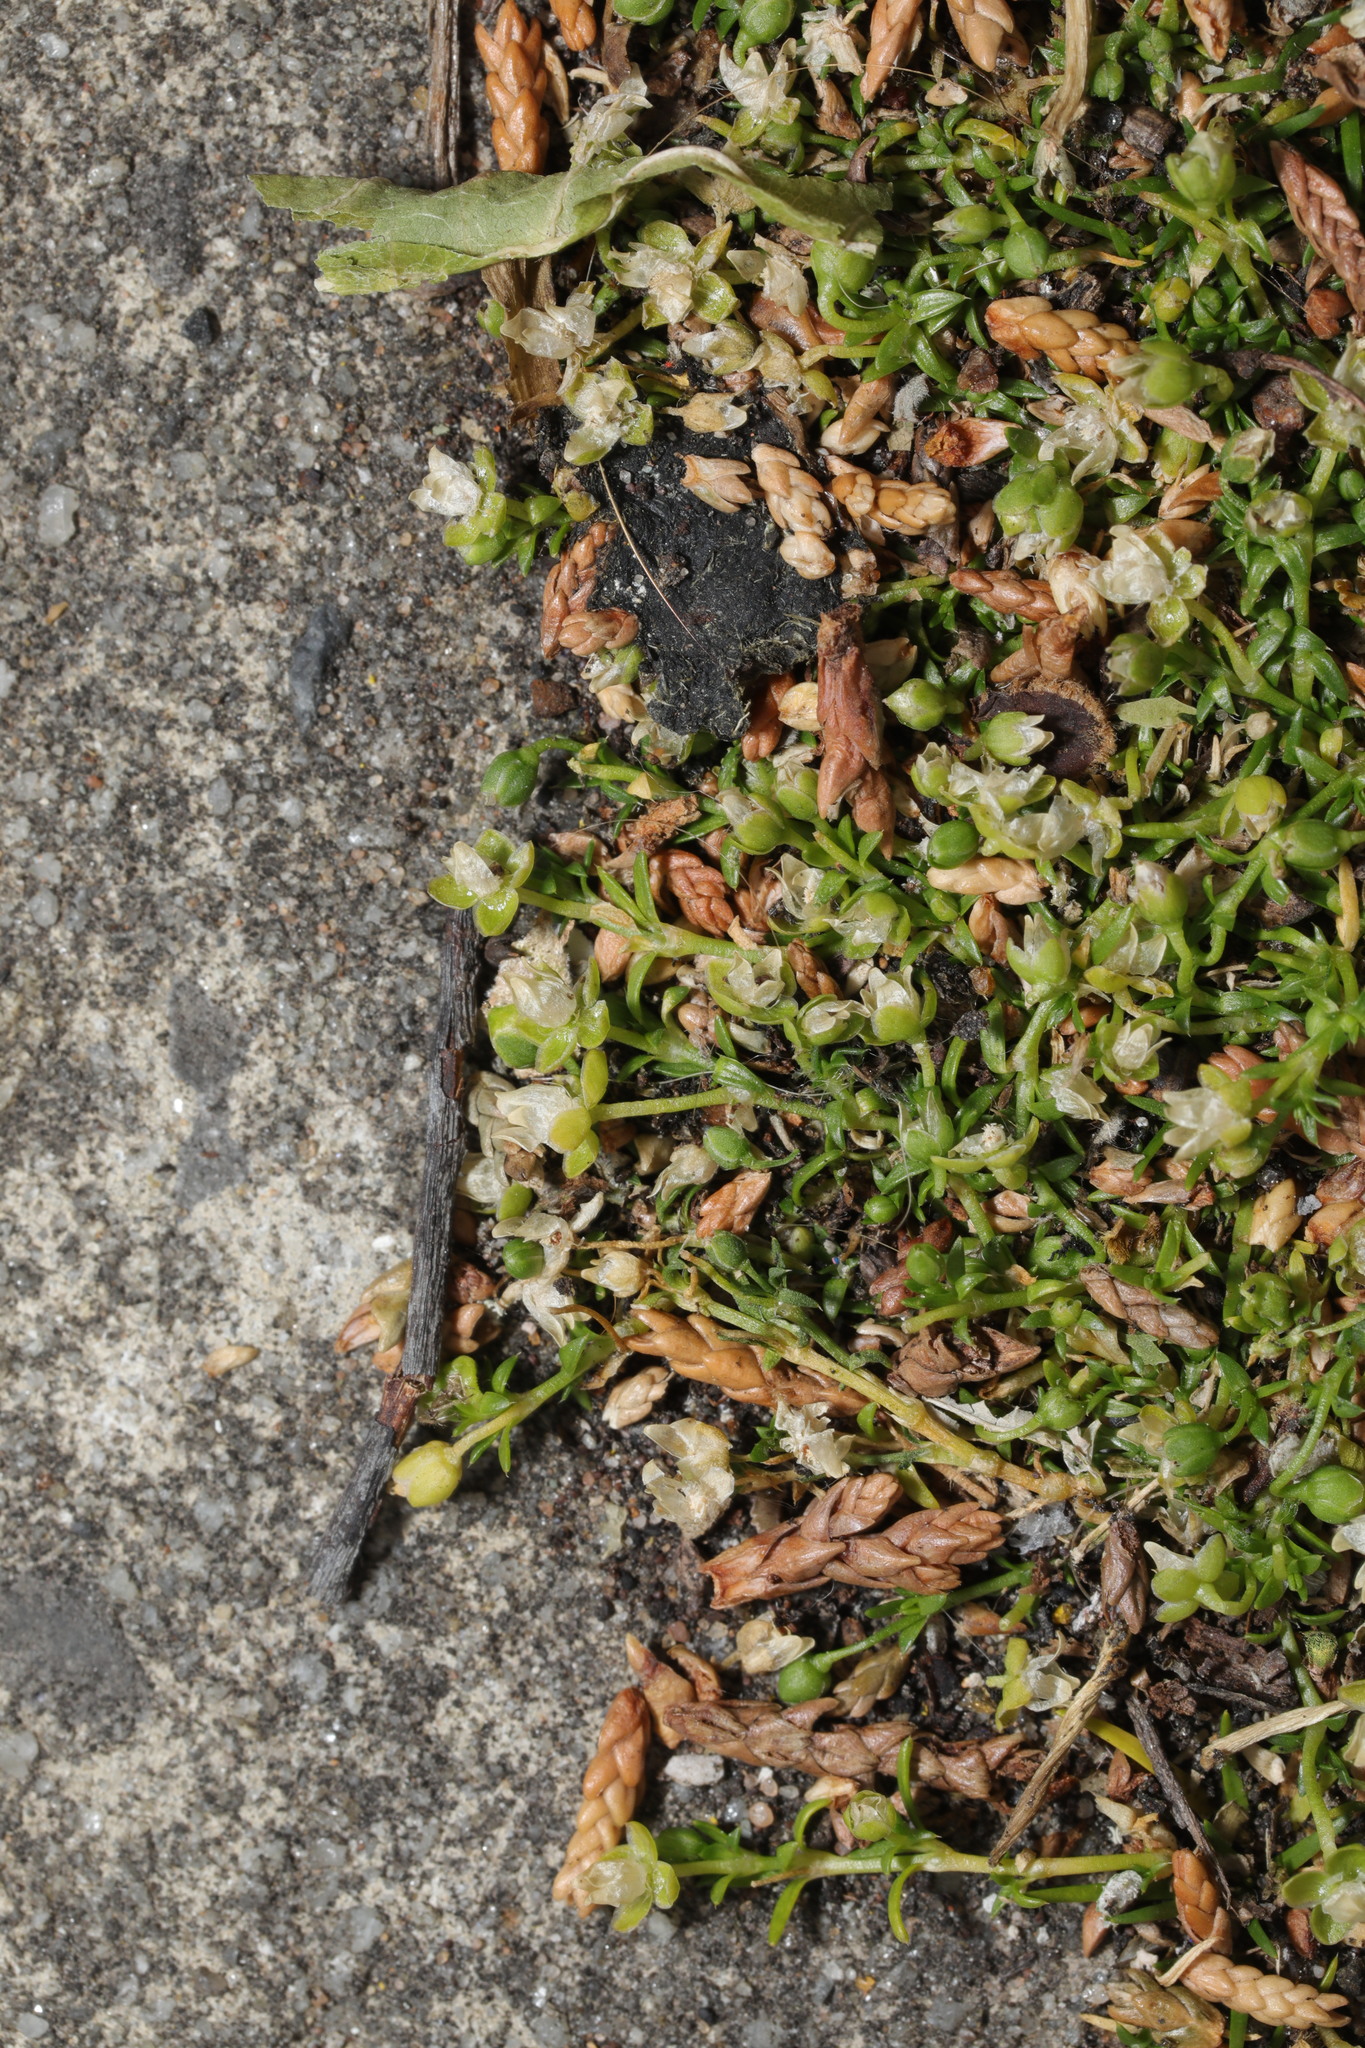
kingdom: Plantae
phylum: Tracheophyta
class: Magnoliopsida
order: Caryophyllales
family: Caryophyllaceae
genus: Sagina
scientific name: Sagina procumbens
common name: Procumbent pearlwort
